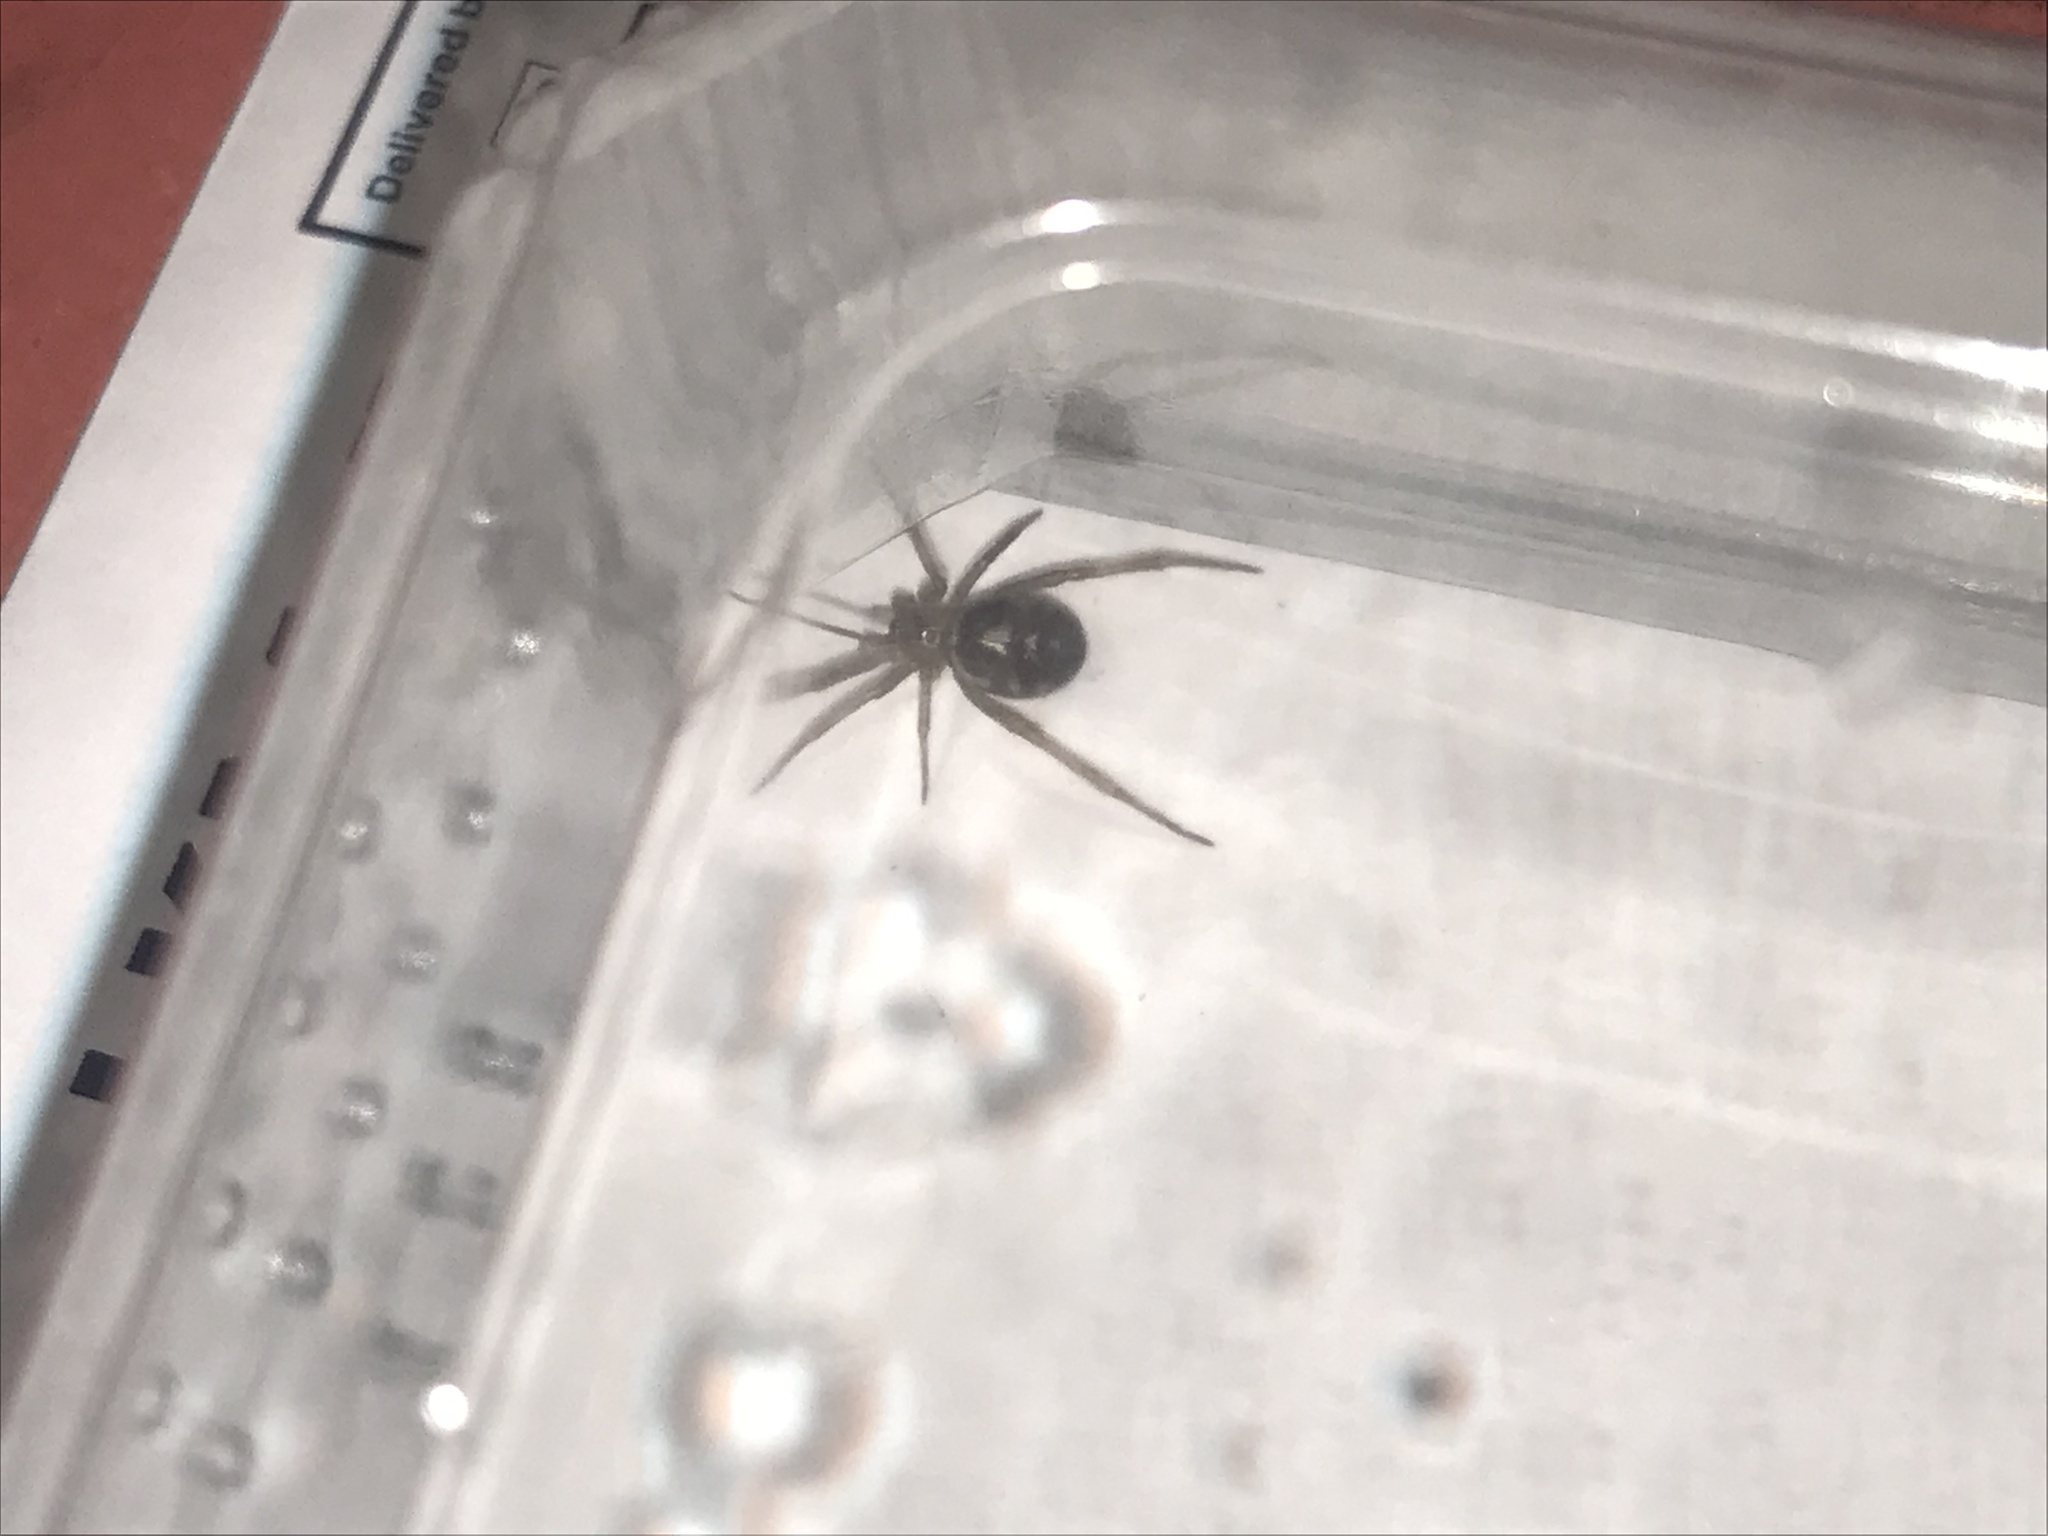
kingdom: Animalia
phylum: Arthropoda
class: Arachnida
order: Araneae
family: Theridiidae
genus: Steatoda
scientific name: Steatoda grossa
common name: False black widow
